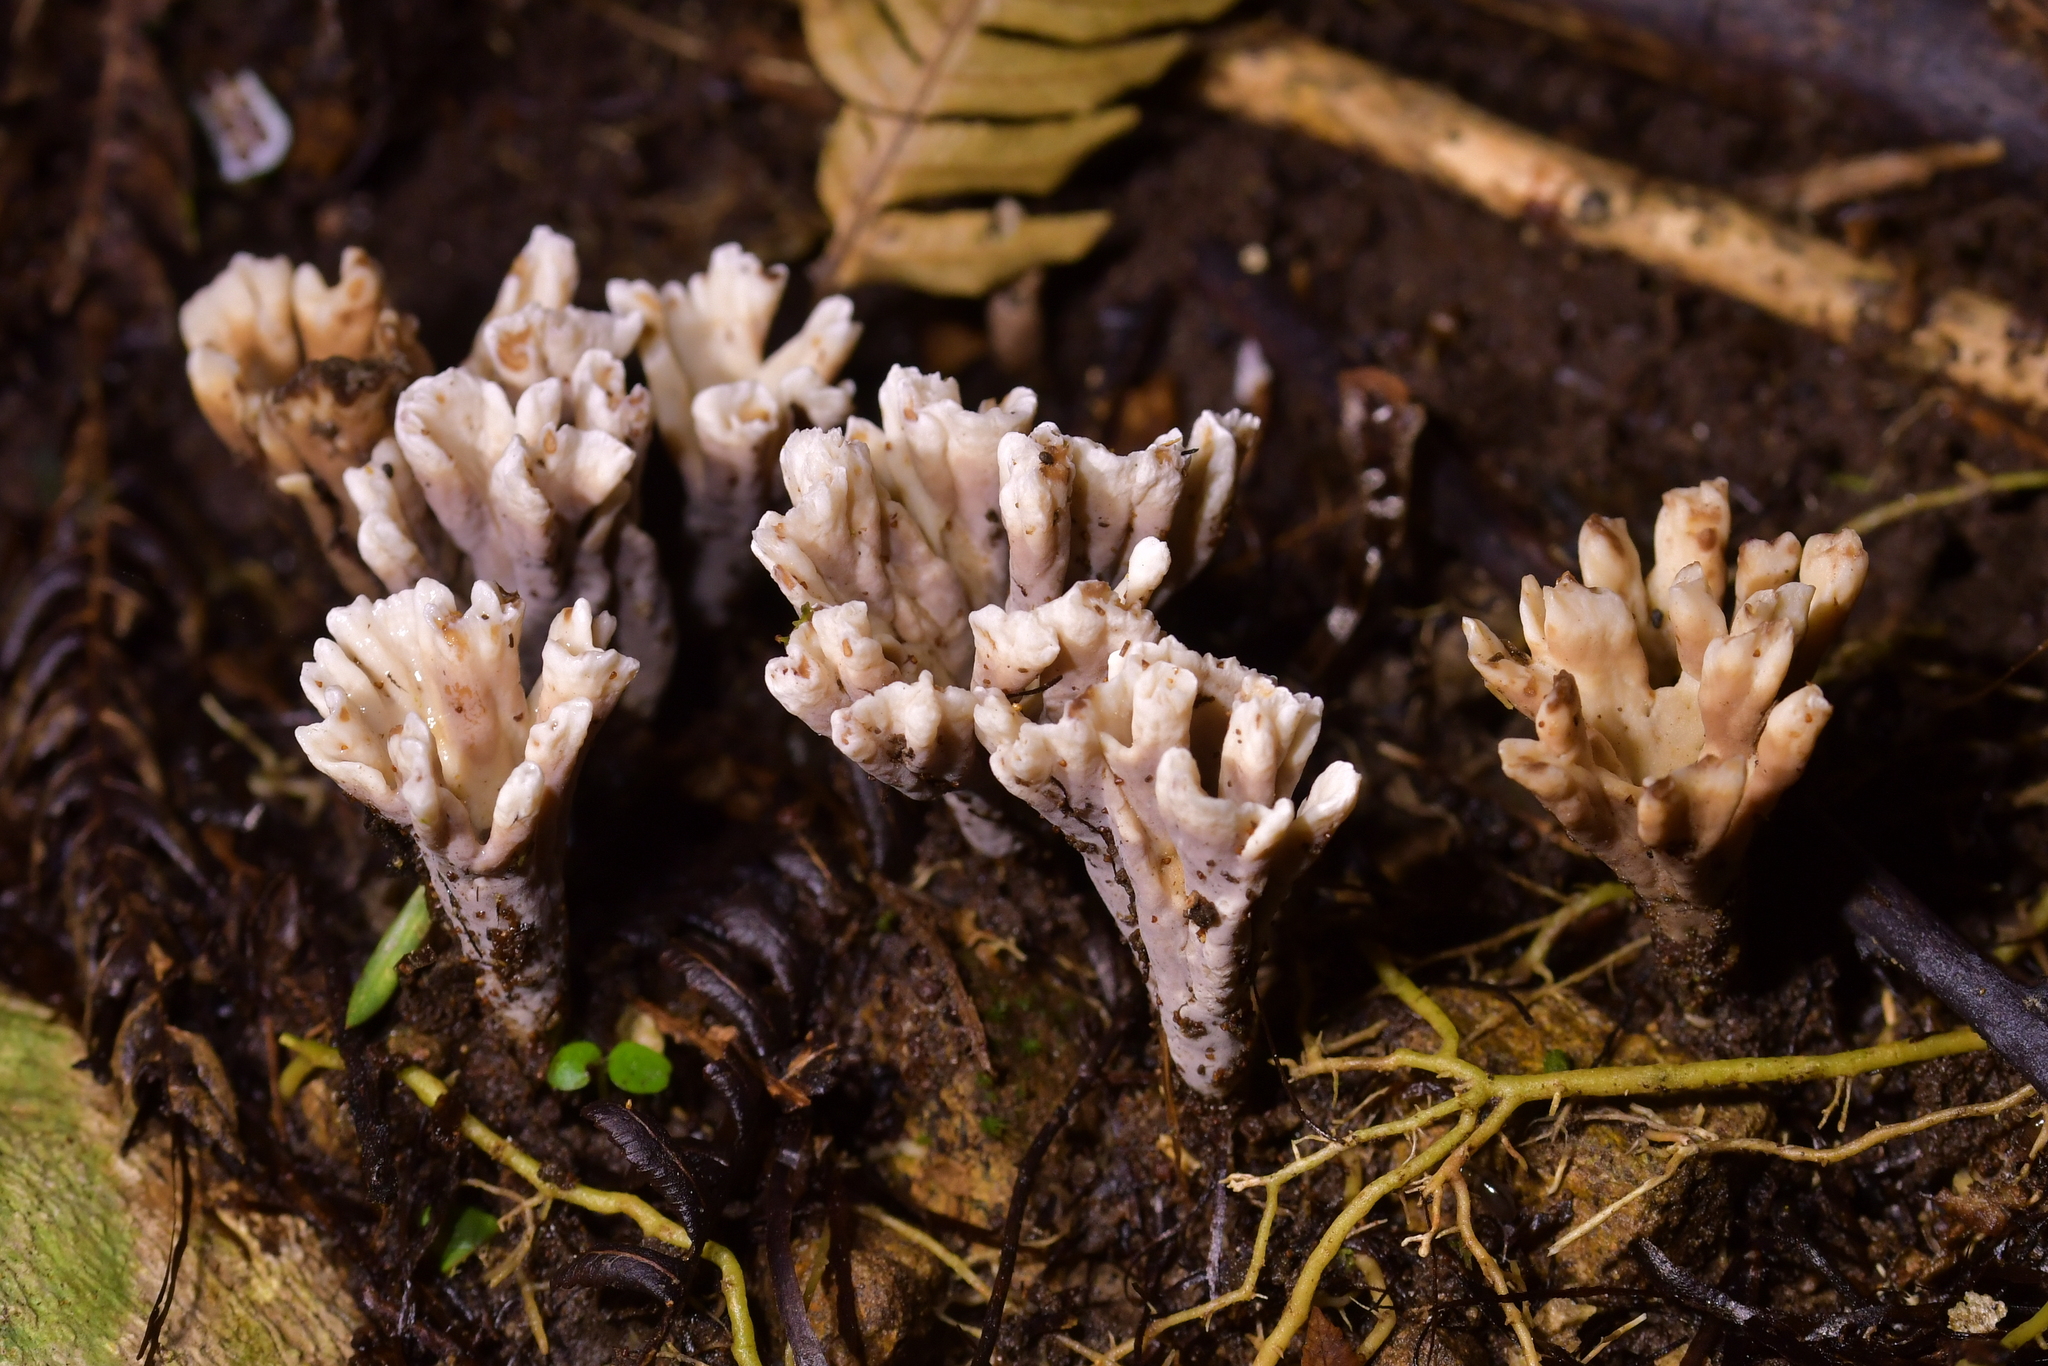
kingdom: Fungi
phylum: Basidiomycota
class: Agaricomycetes
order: Stereopsidales
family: Stereopsidaceae
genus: Stereopsis
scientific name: Stereopsis hiscens
